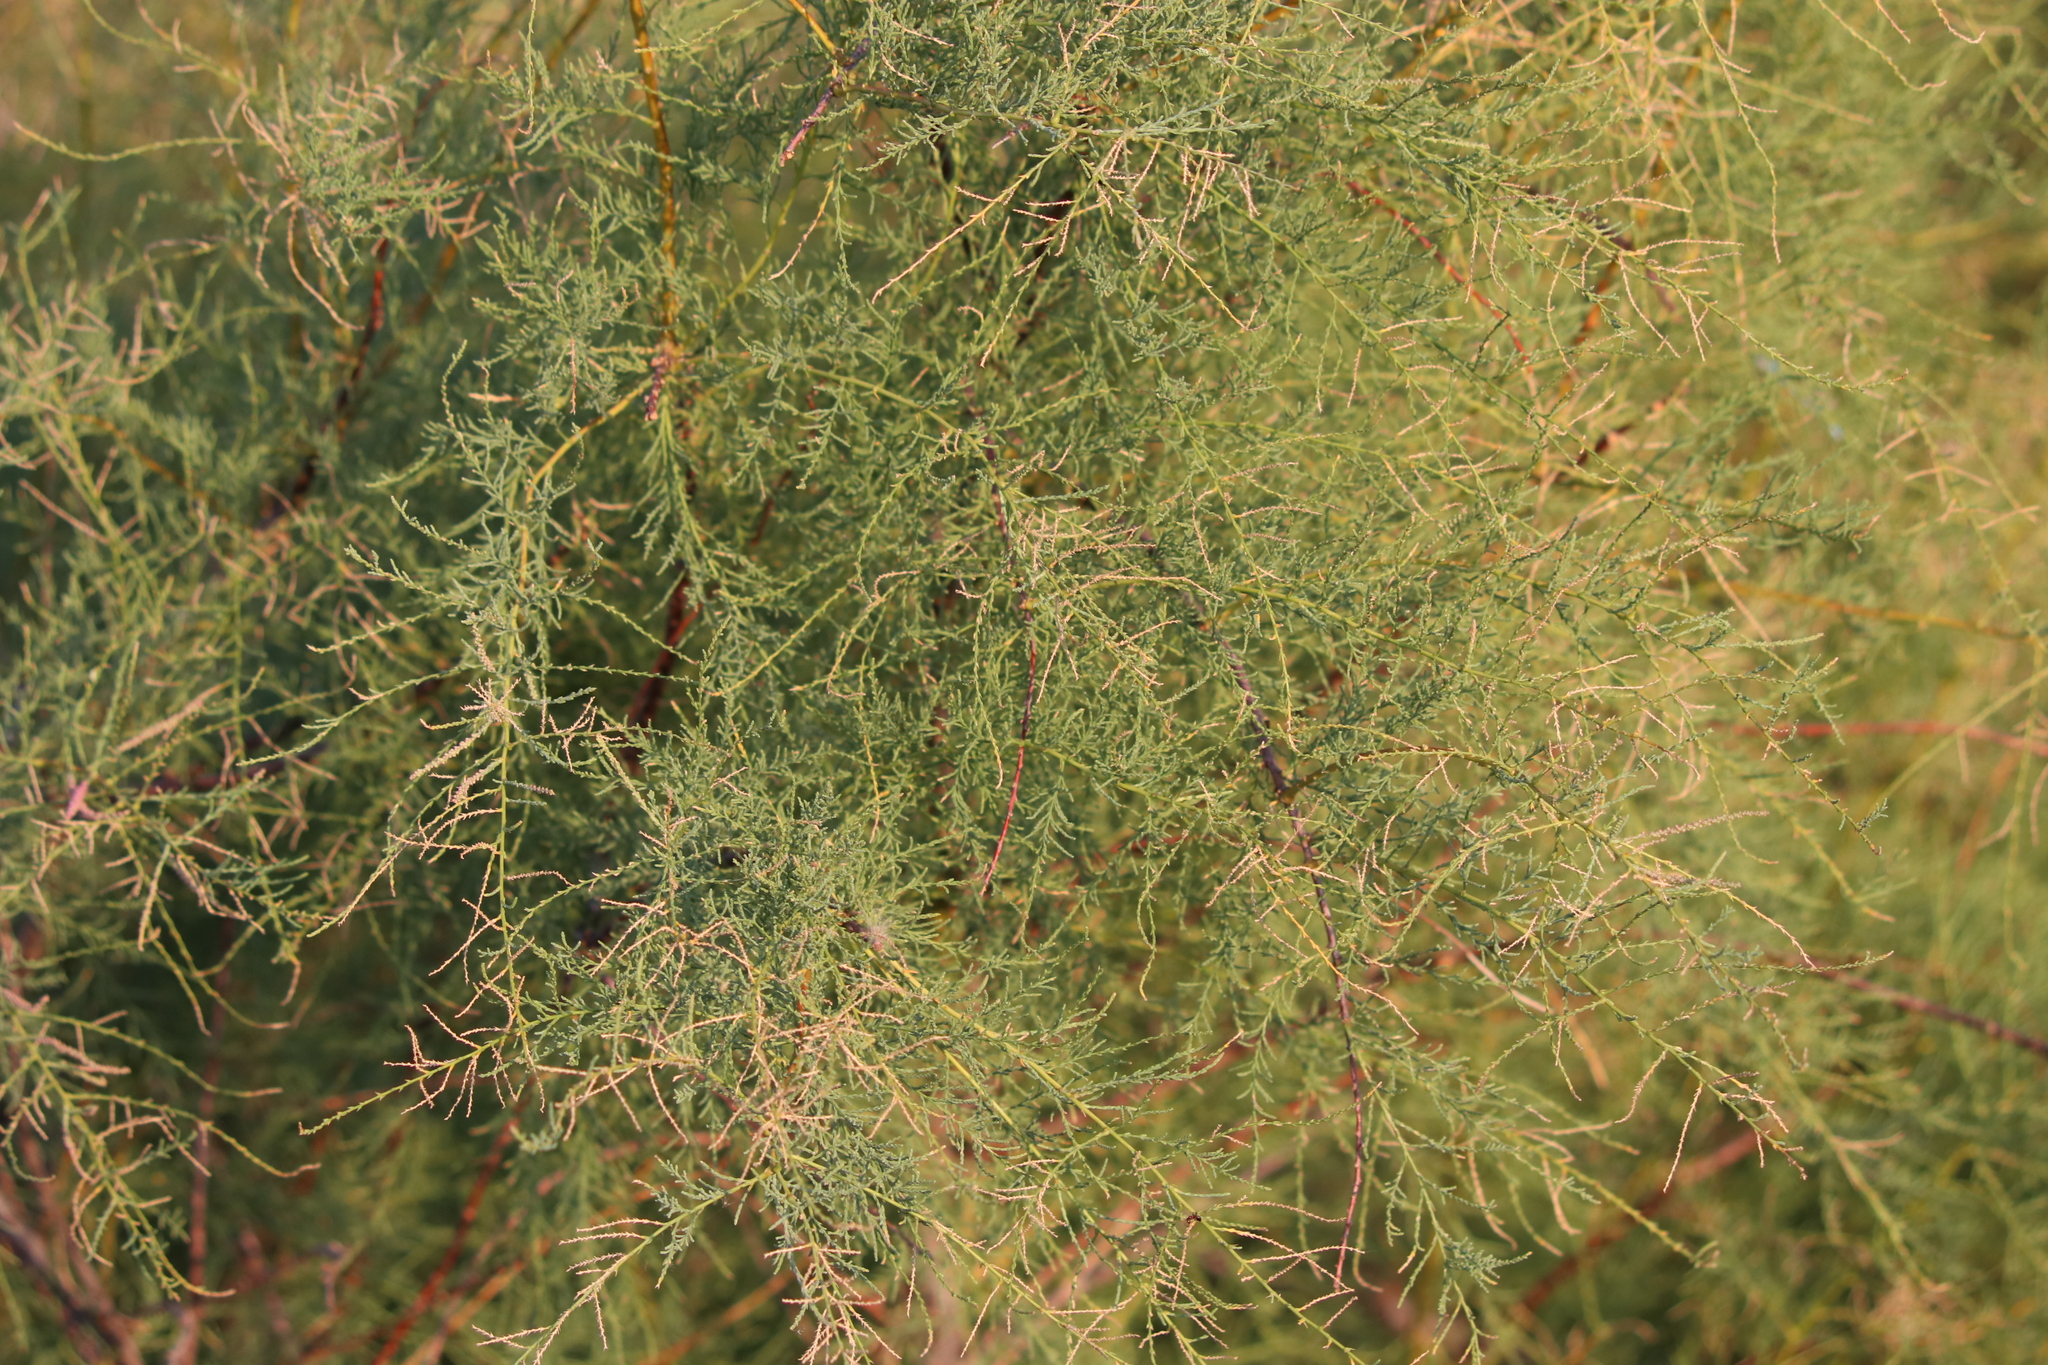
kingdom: Plantae
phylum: Tracheophyta
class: Magnoliopsida
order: Caryophyllales
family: Tamaricaceae
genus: Tamarix
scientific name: Tamarix ramosissima
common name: Pink tamarisk
